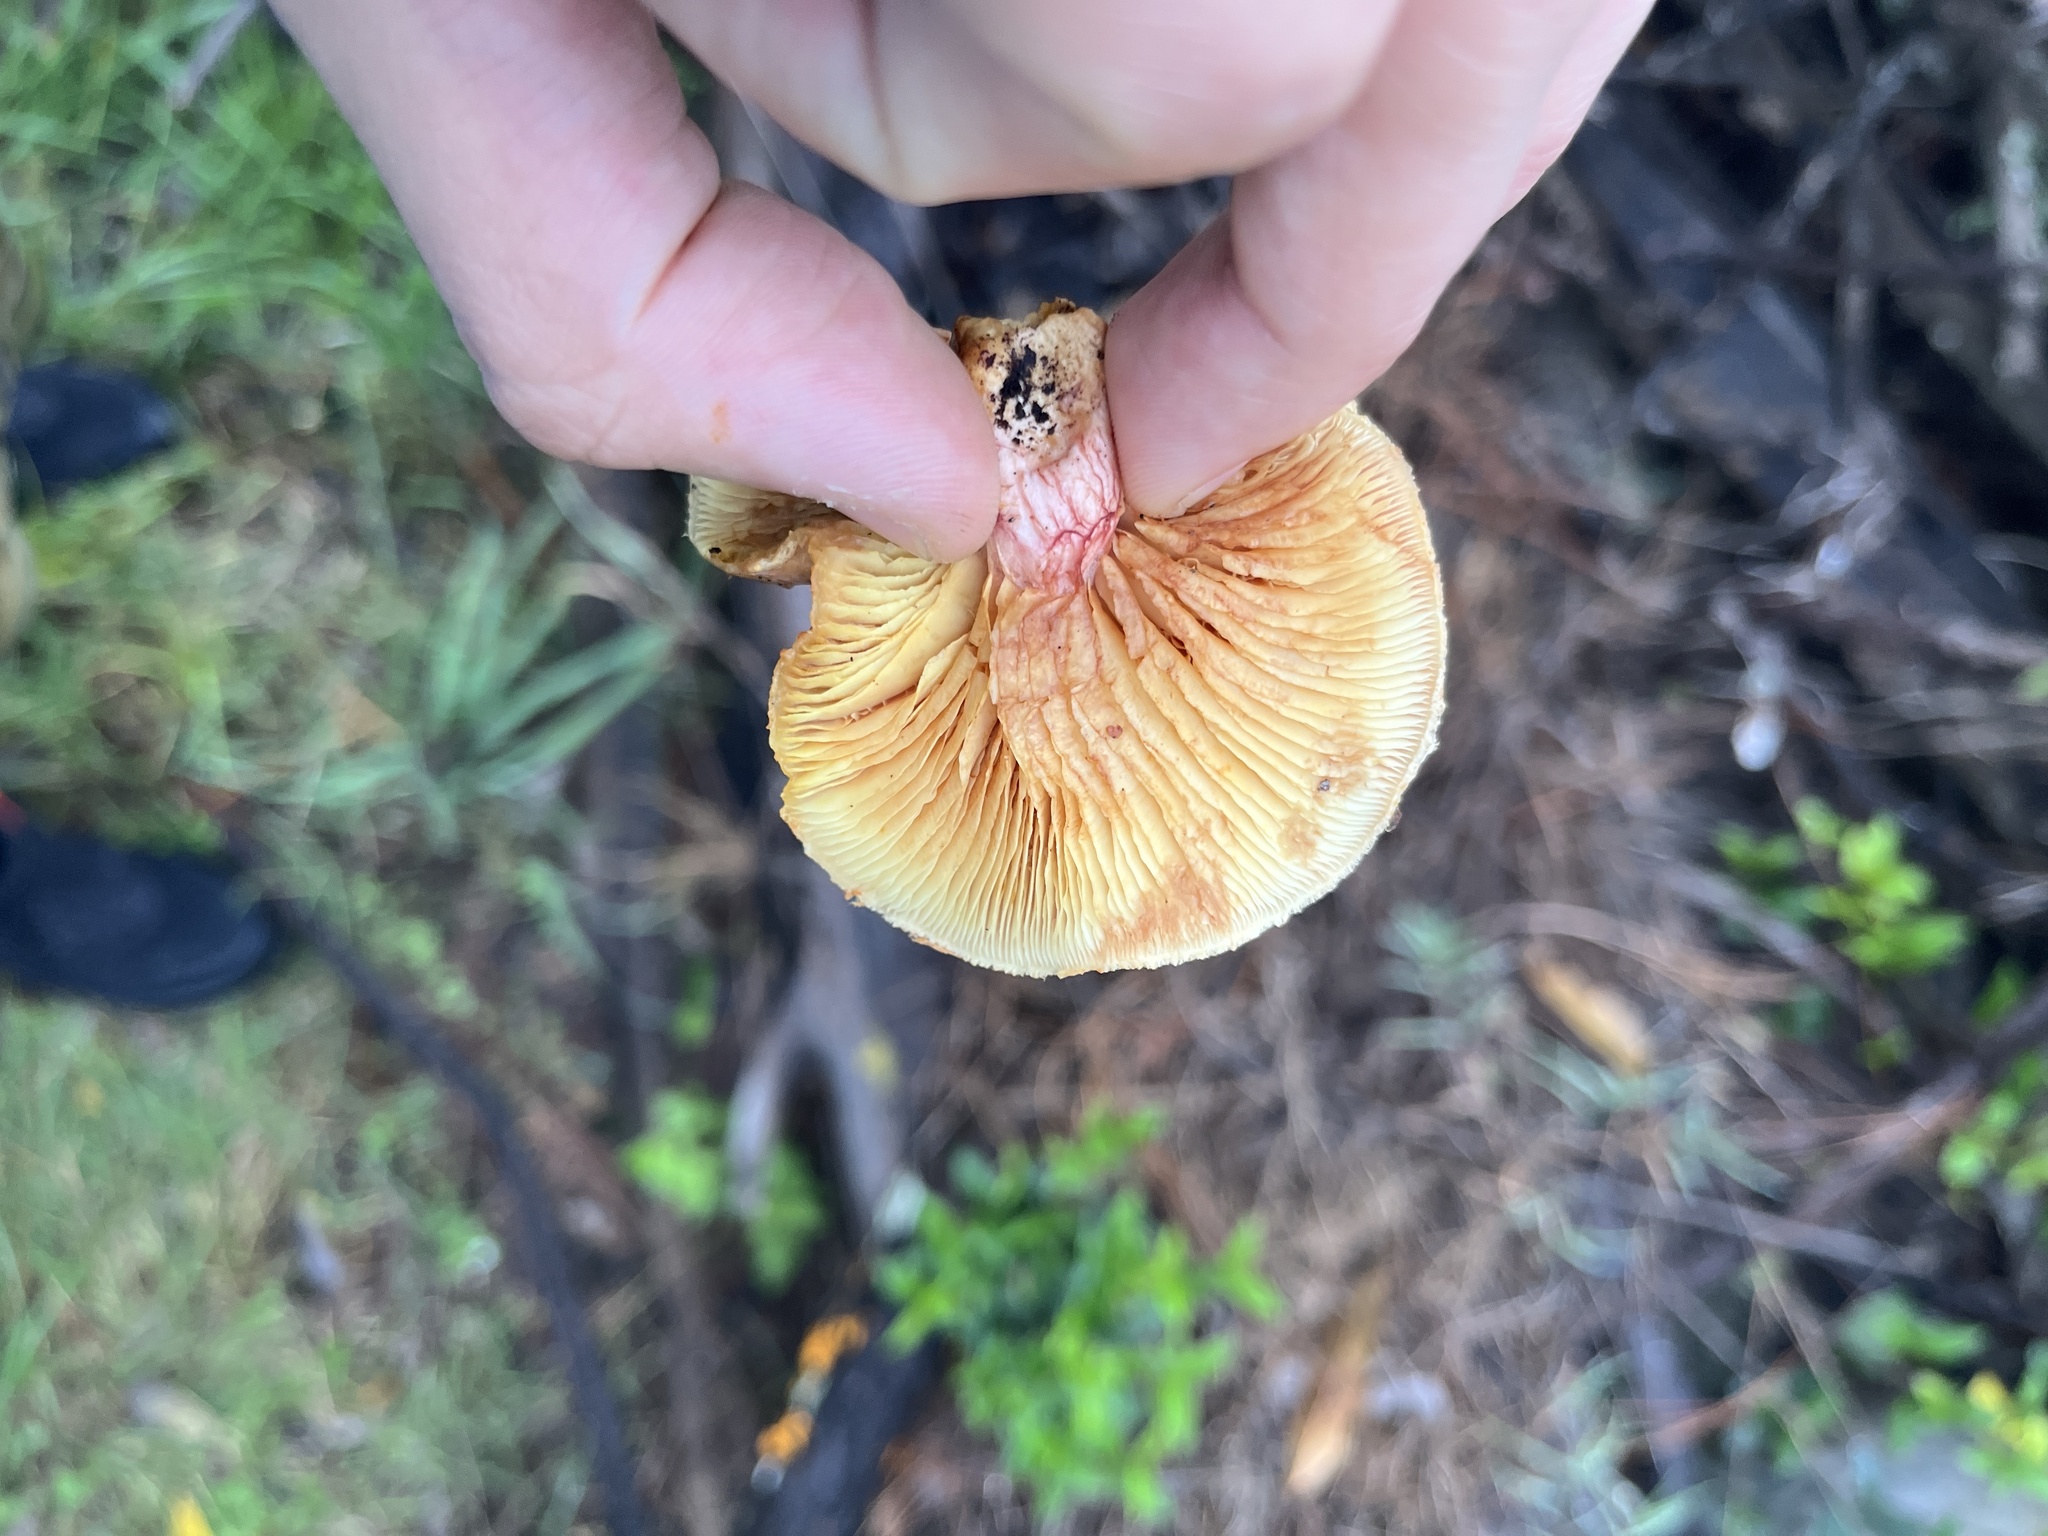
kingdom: Fungi
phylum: Basidiomycota
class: Agaricomycetes
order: Agaricales
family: Hymenogastraceae
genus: Gymnopilus
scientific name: Gymnopilus luteofolius
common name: Yellow-gilled gymnopilus
